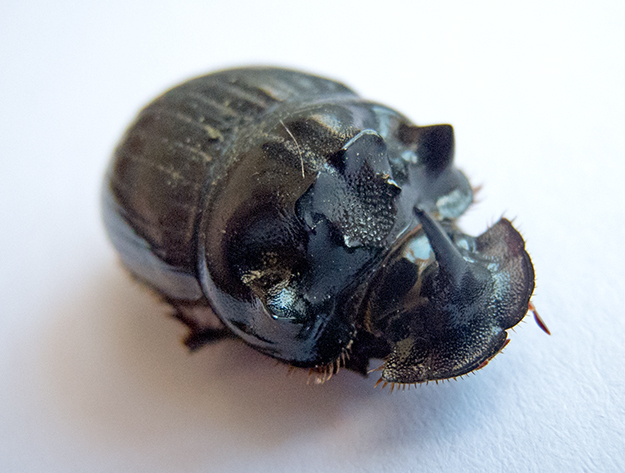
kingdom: Animalia
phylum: Arthropoda
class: Insecta
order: Coleoptera
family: Scarabaeidae
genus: Copris
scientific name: Copris lunaris
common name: Horned dung beetle
